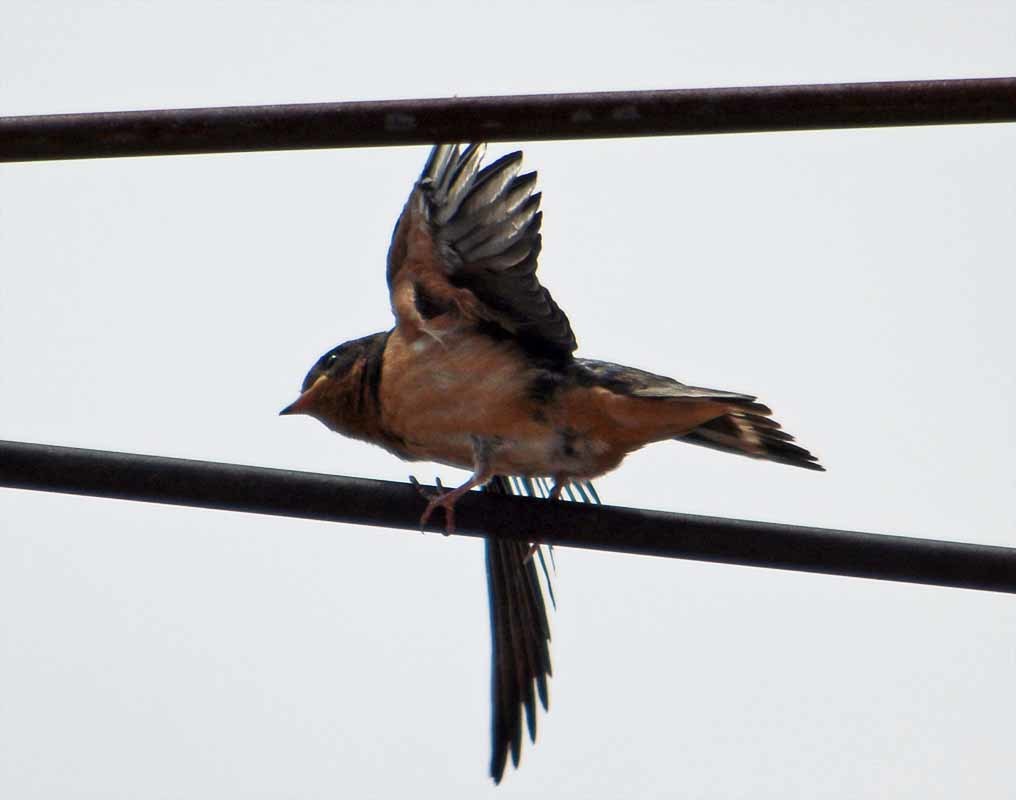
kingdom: Animalia
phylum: Chordata
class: Aves
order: Passeriformes
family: Hirundinidae
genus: Hirundo
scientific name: Hirundo rustica
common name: Barn swallow
